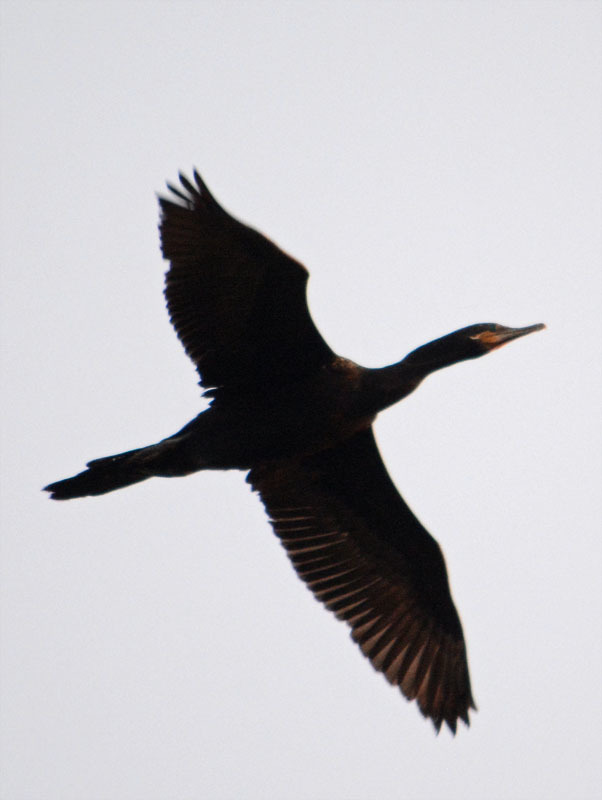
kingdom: Animalia
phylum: Chordata
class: Aves
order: Suliformes
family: Phalacrocoracidae
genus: Phalacrocorax
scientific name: Phalacrocorax brasilianus
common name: Neotropic cormorant
